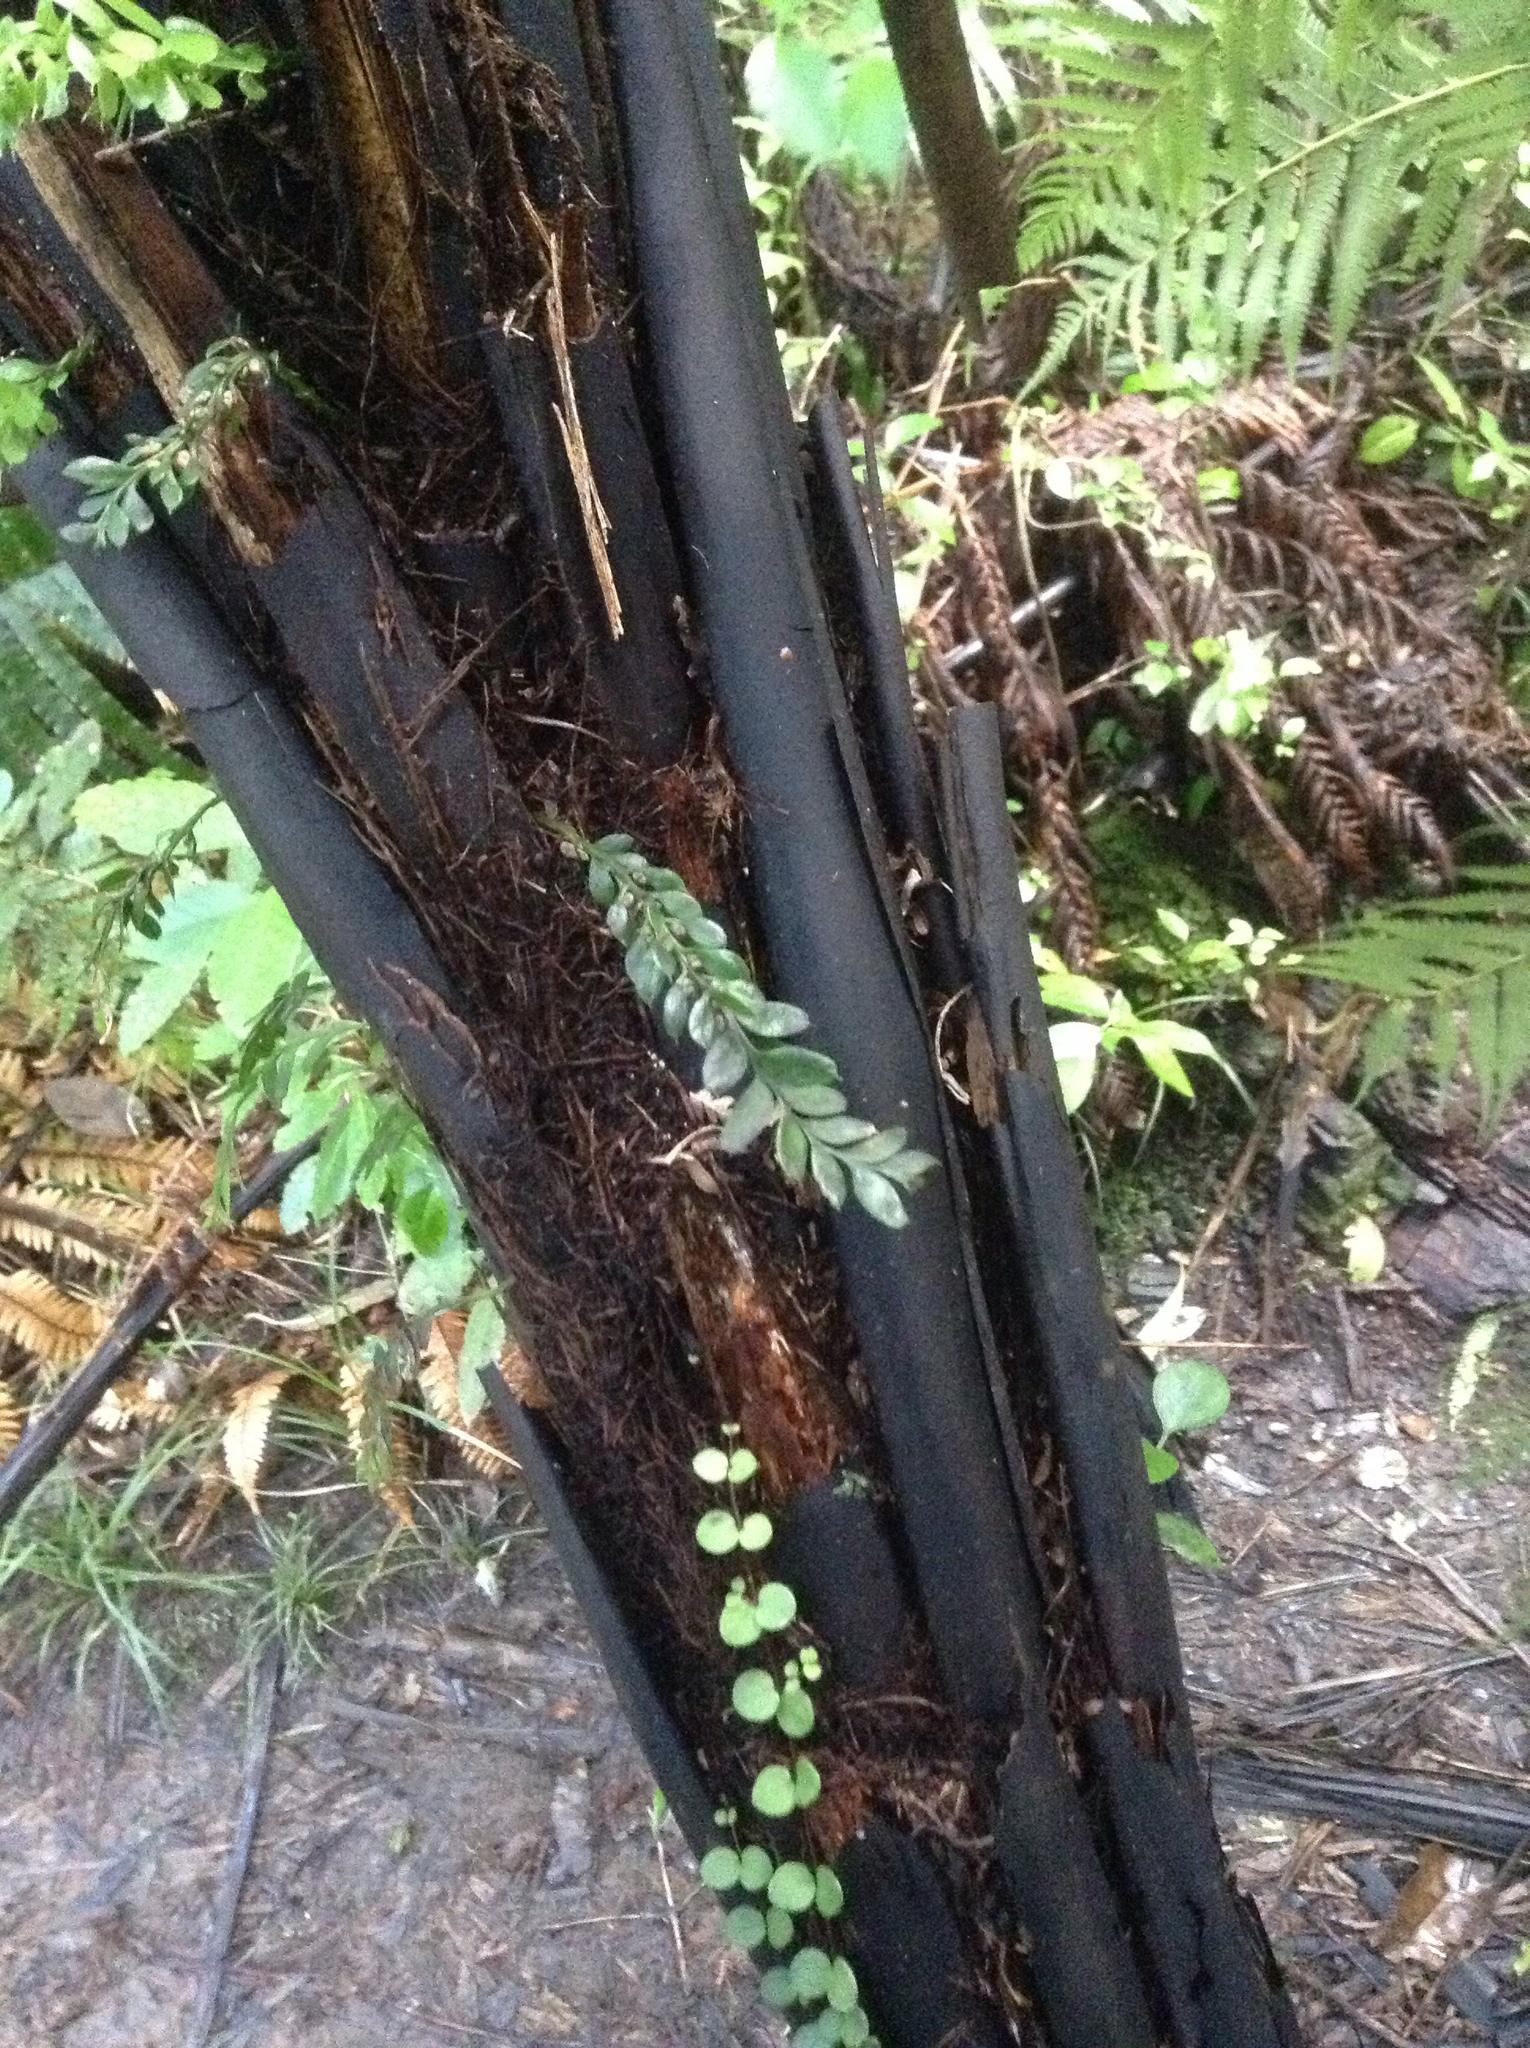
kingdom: Plantae
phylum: Tracheophyta
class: Polypodiopsida
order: Psilotales
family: Psilotaceae
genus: Tmesipteris
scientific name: Tmesipteris lanceolata
